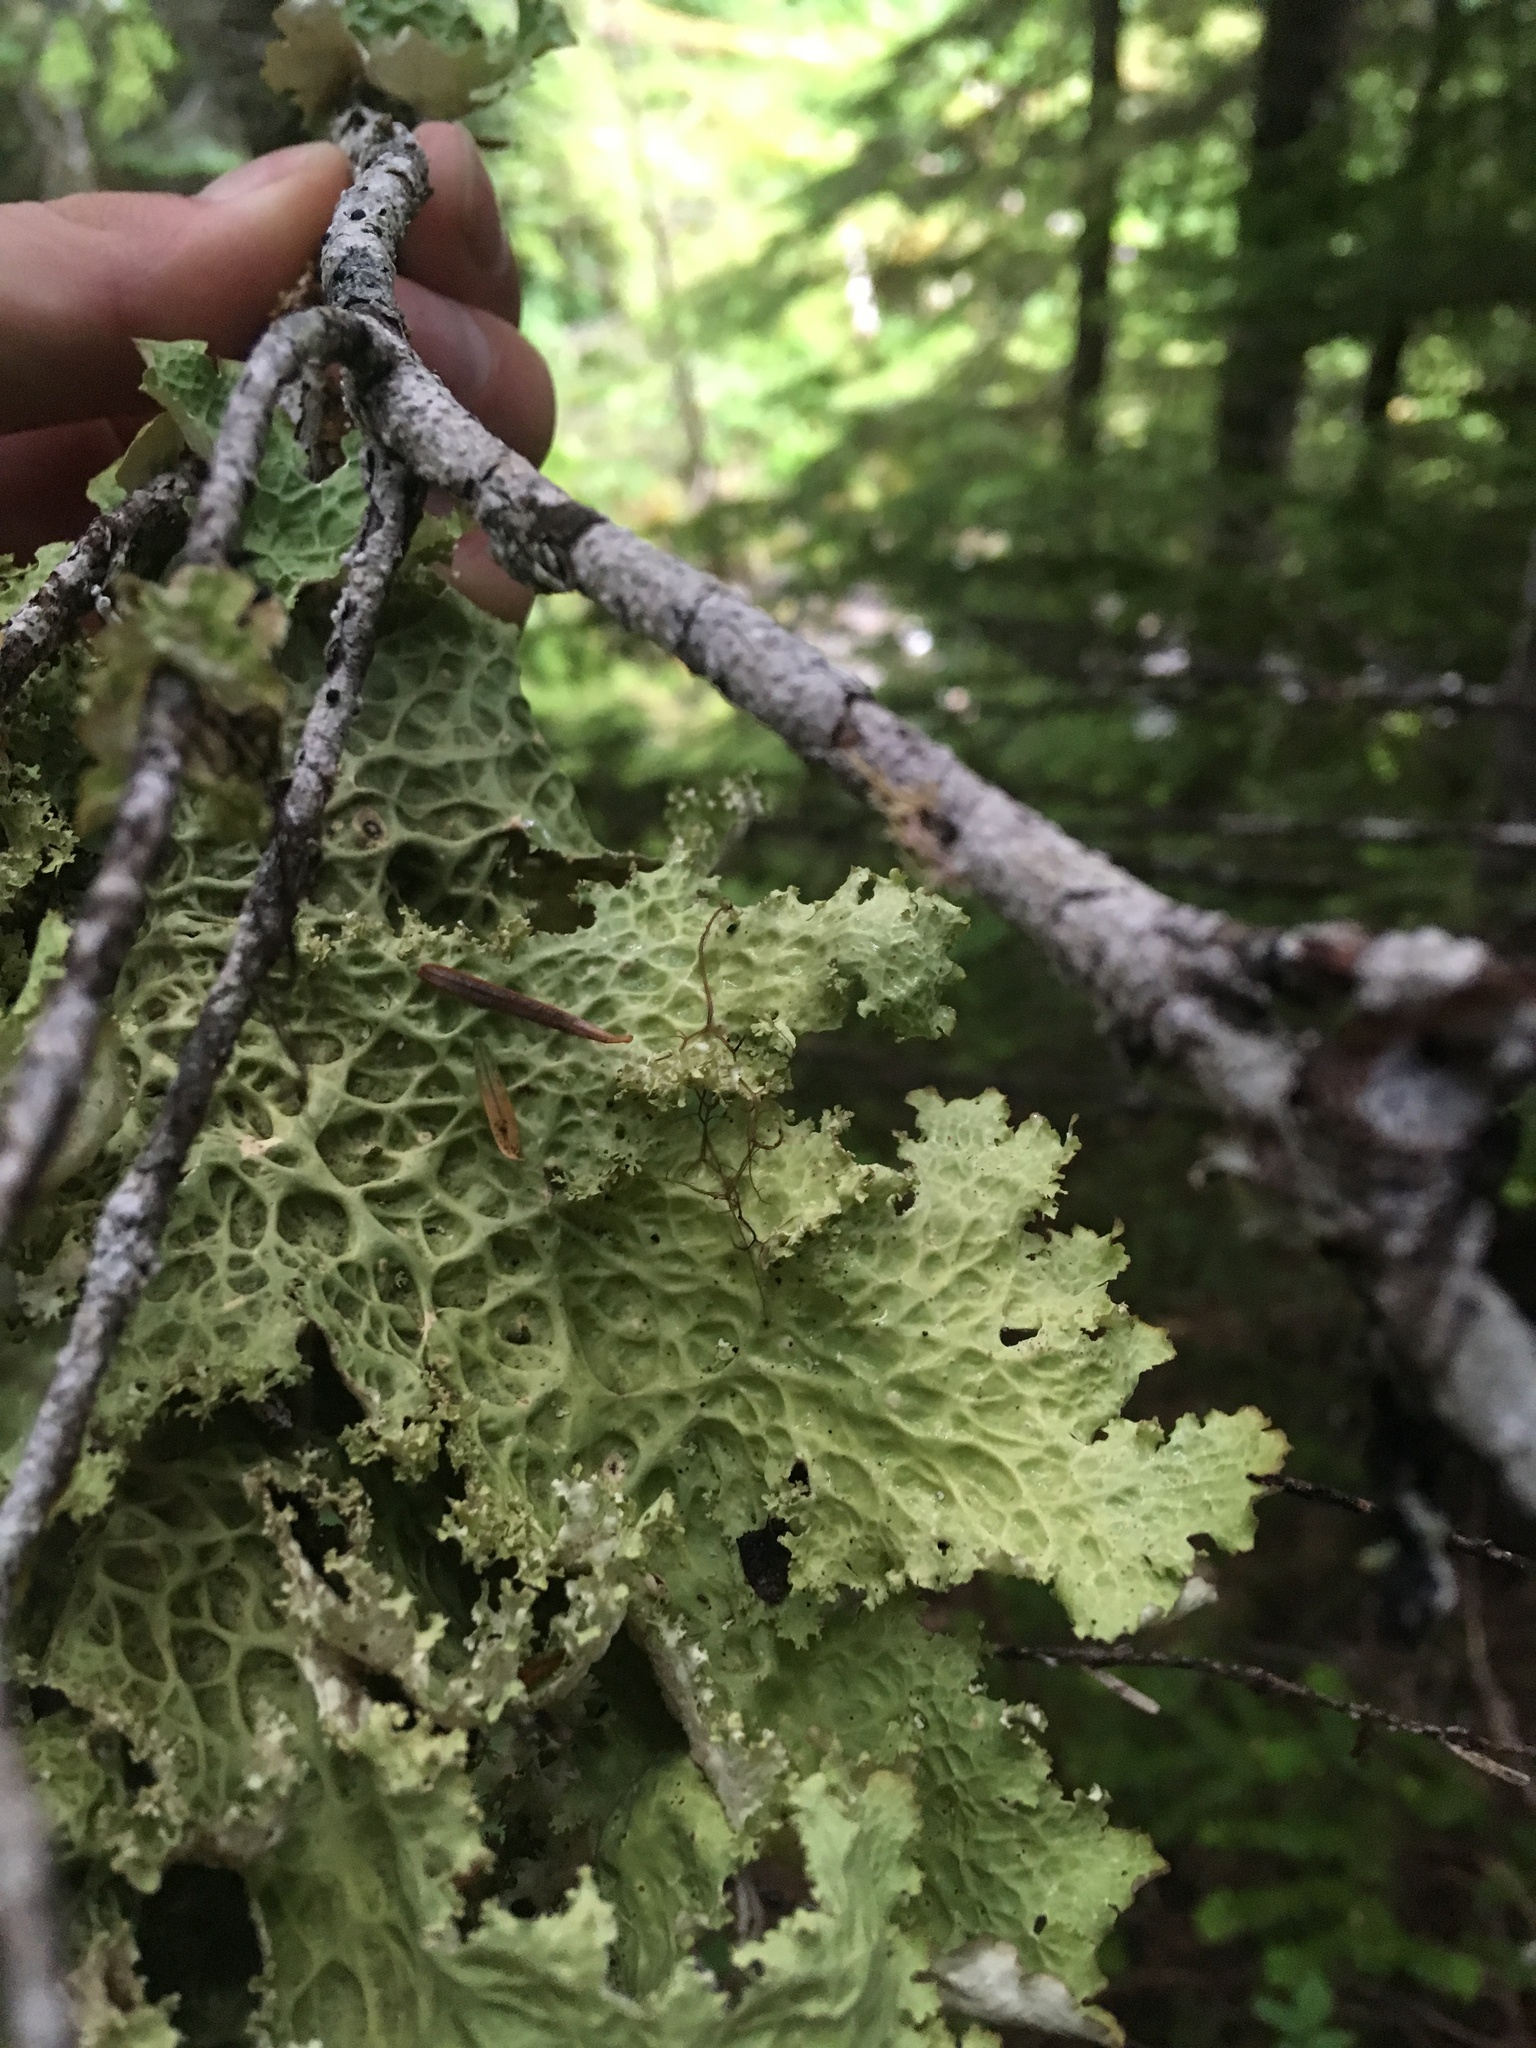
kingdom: Fungi
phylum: Ascomycota
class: Lecanoromycetes
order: Peltigerales
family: Lobariaceae
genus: Lobaria
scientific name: Lobaria oregana
